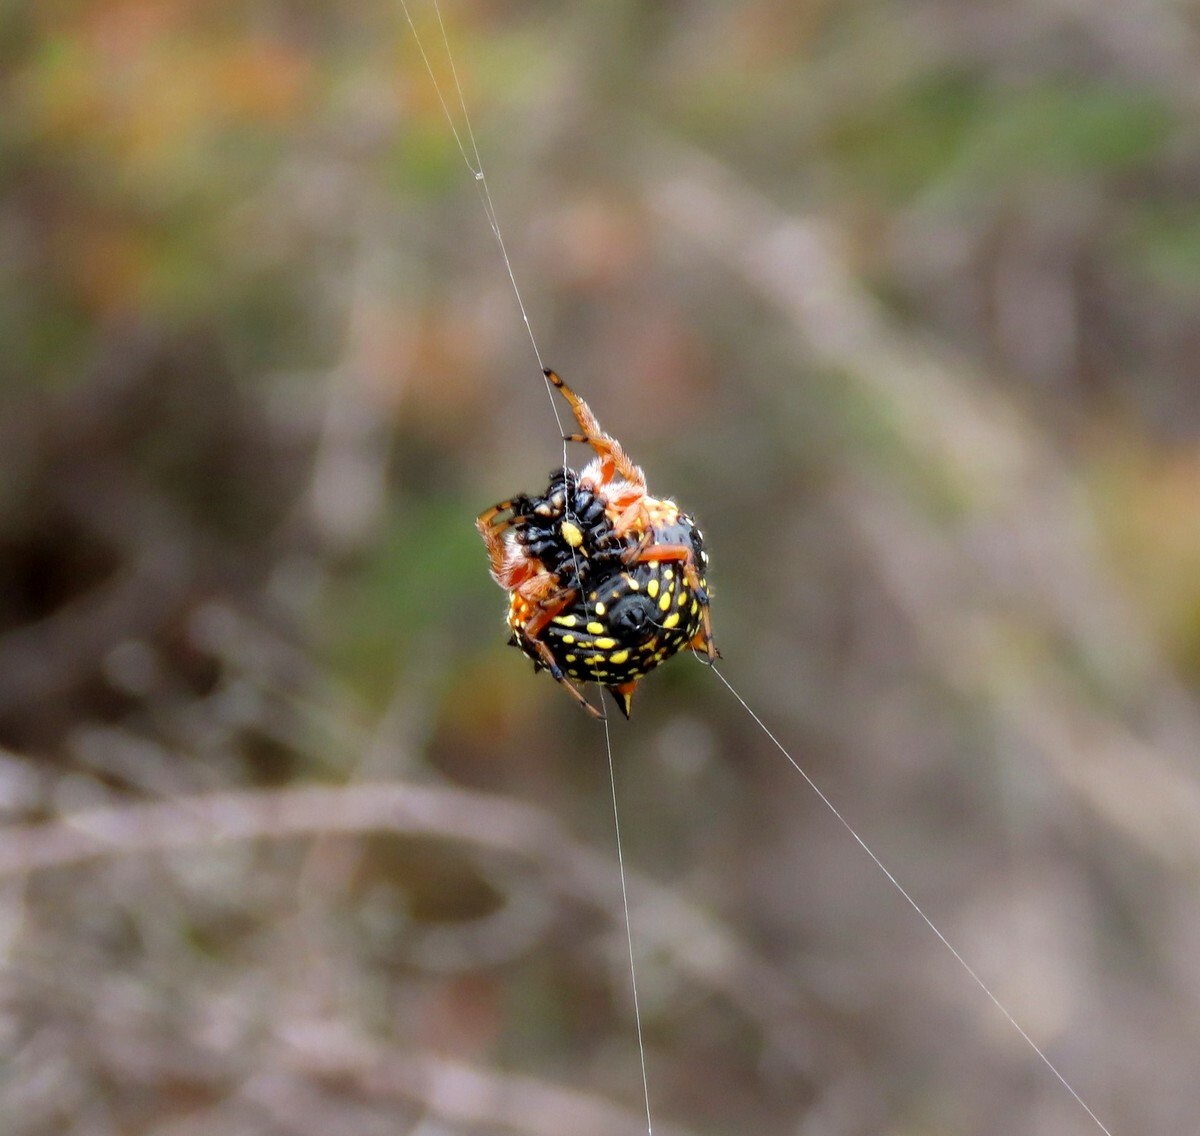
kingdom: Animalia
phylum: Arthropoda
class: Arachnida
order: Araneae
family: Araneidae
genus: Austracantha
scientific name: Austracantha minax
